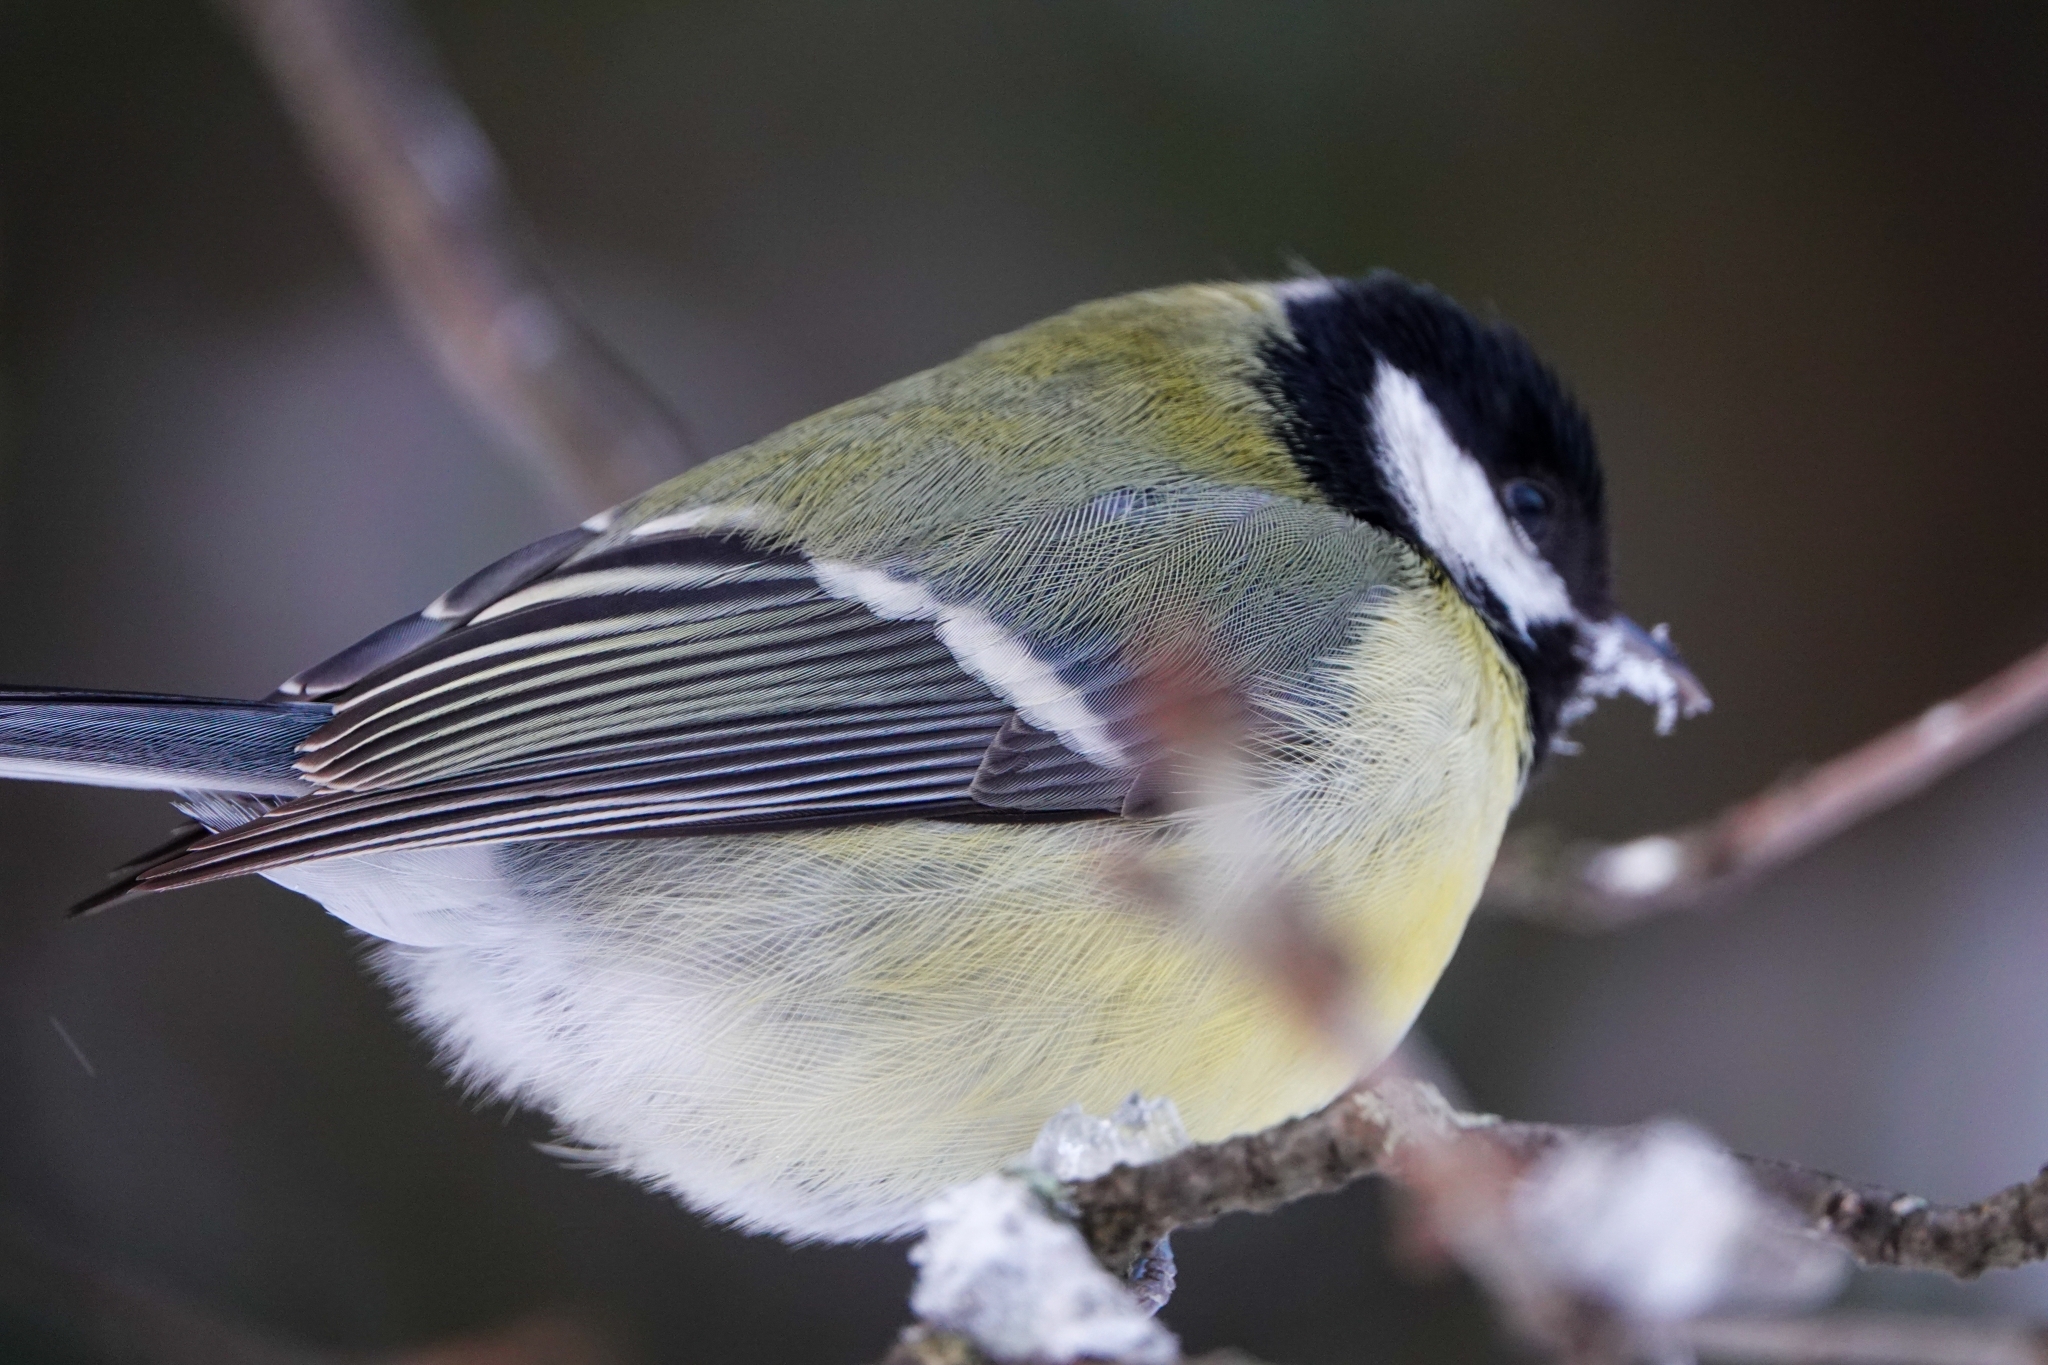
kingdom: Animalia
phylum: Chordata
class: Aves
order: Passeriformes
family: Paridae
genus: Parus
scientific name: Parus major
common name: Great tit
